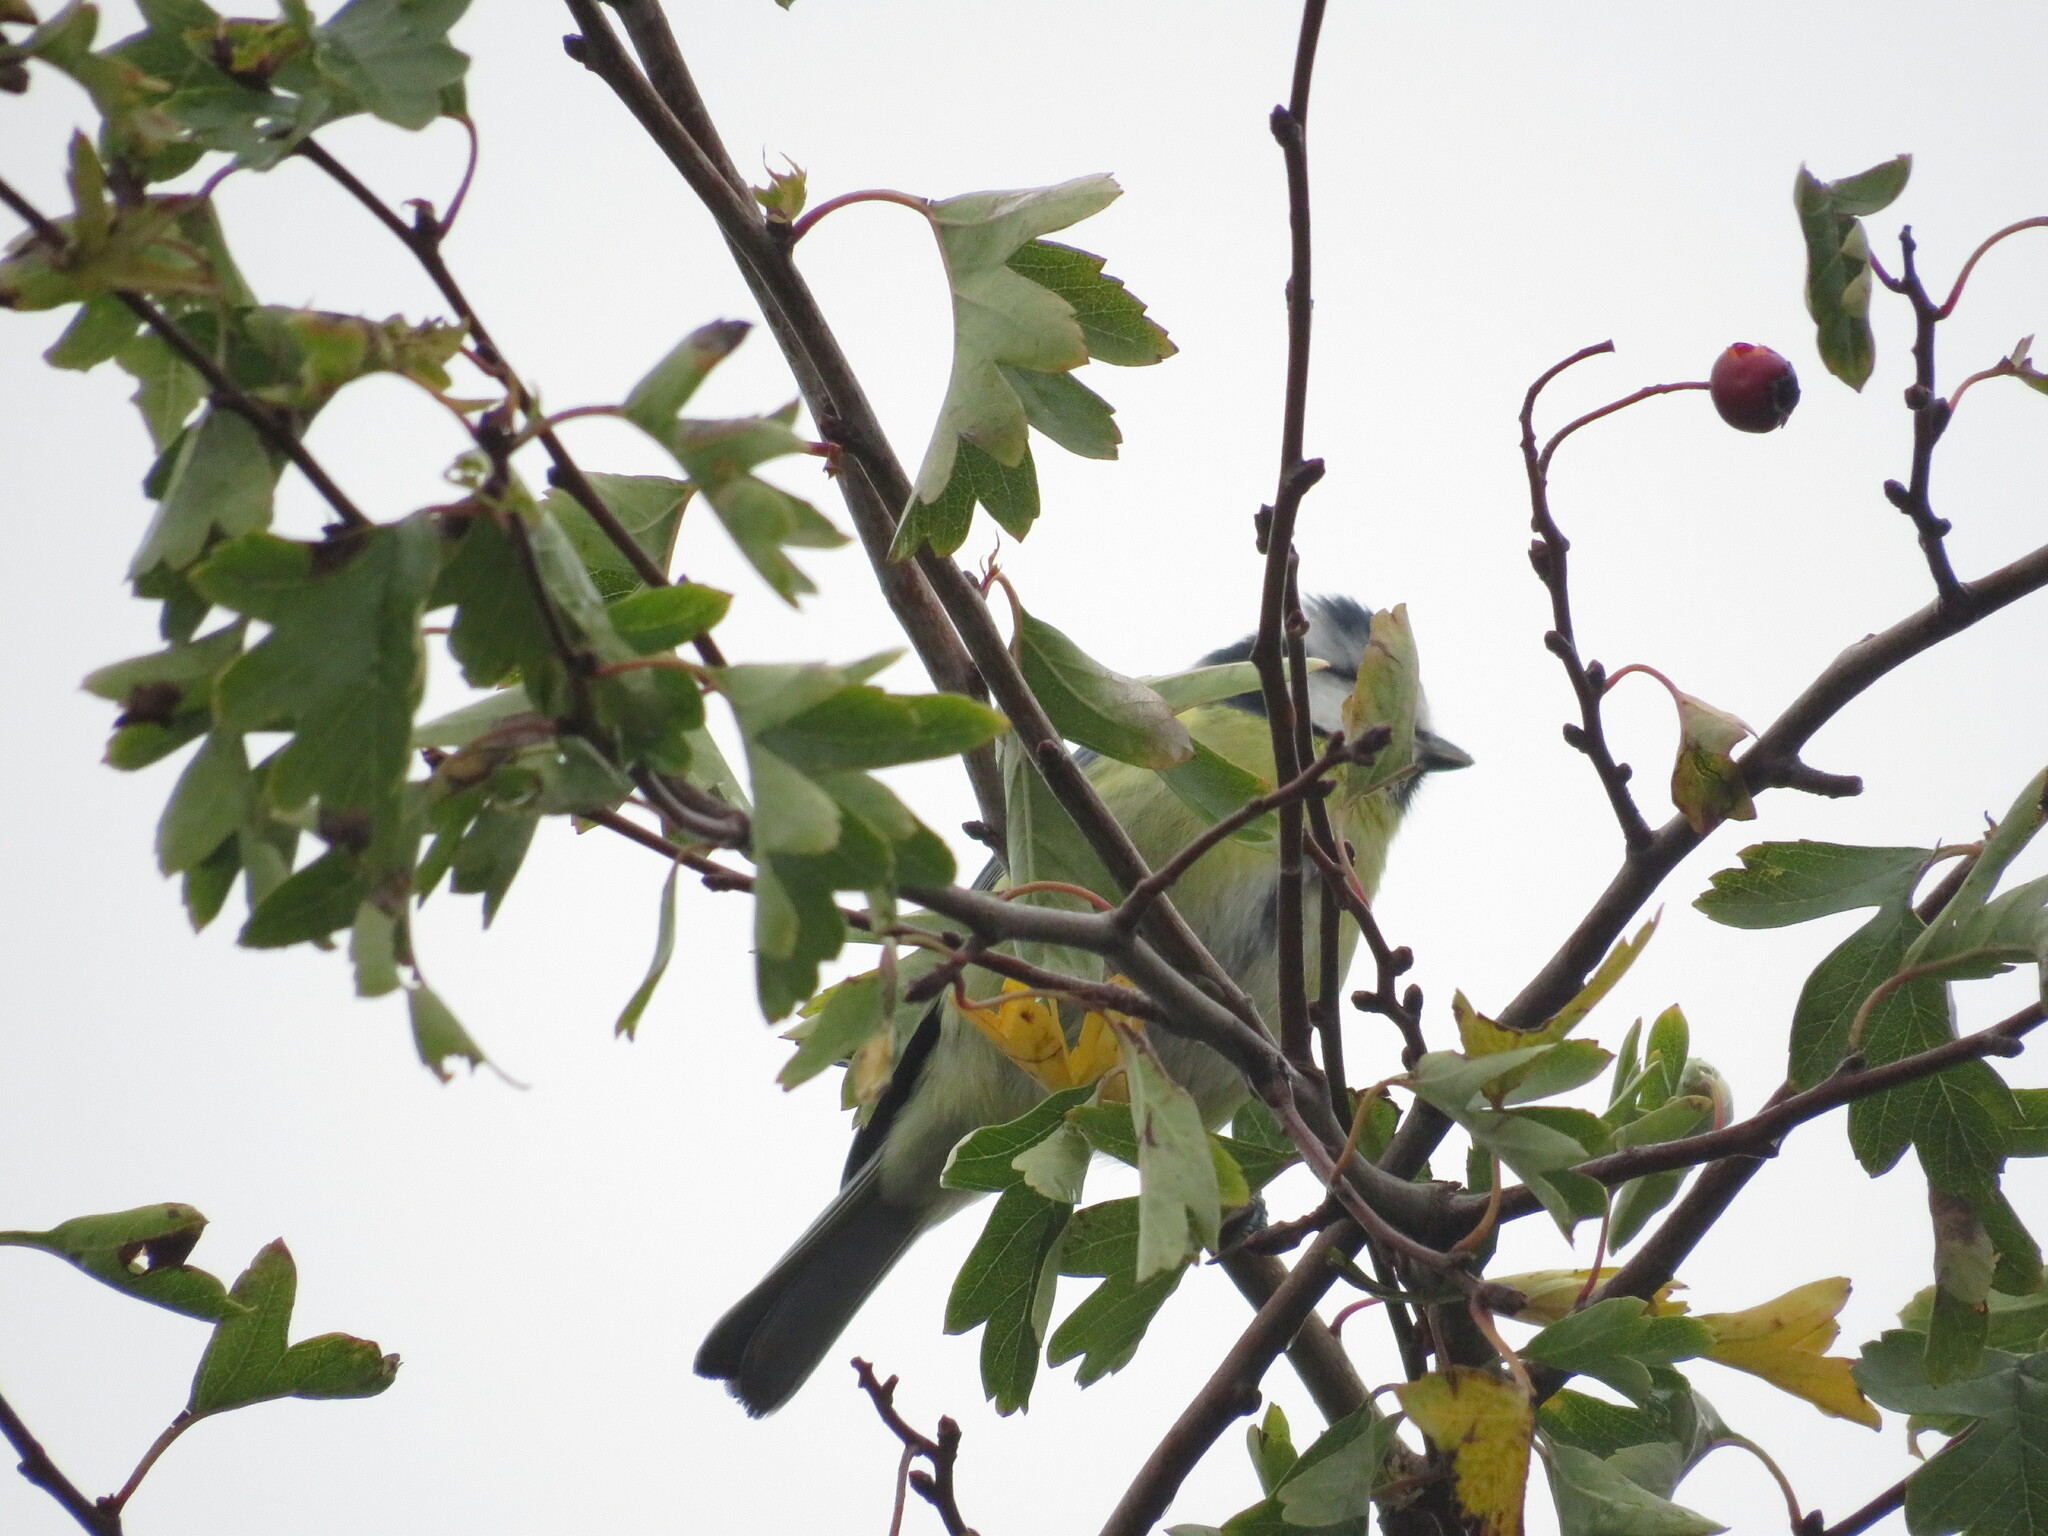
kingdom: Animalia
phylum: Chordata
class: Aves
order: Passeriformes
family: Paridae
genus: Cyanistes
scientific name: Cyanistes caeruleus
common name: Eurasian blue tit
